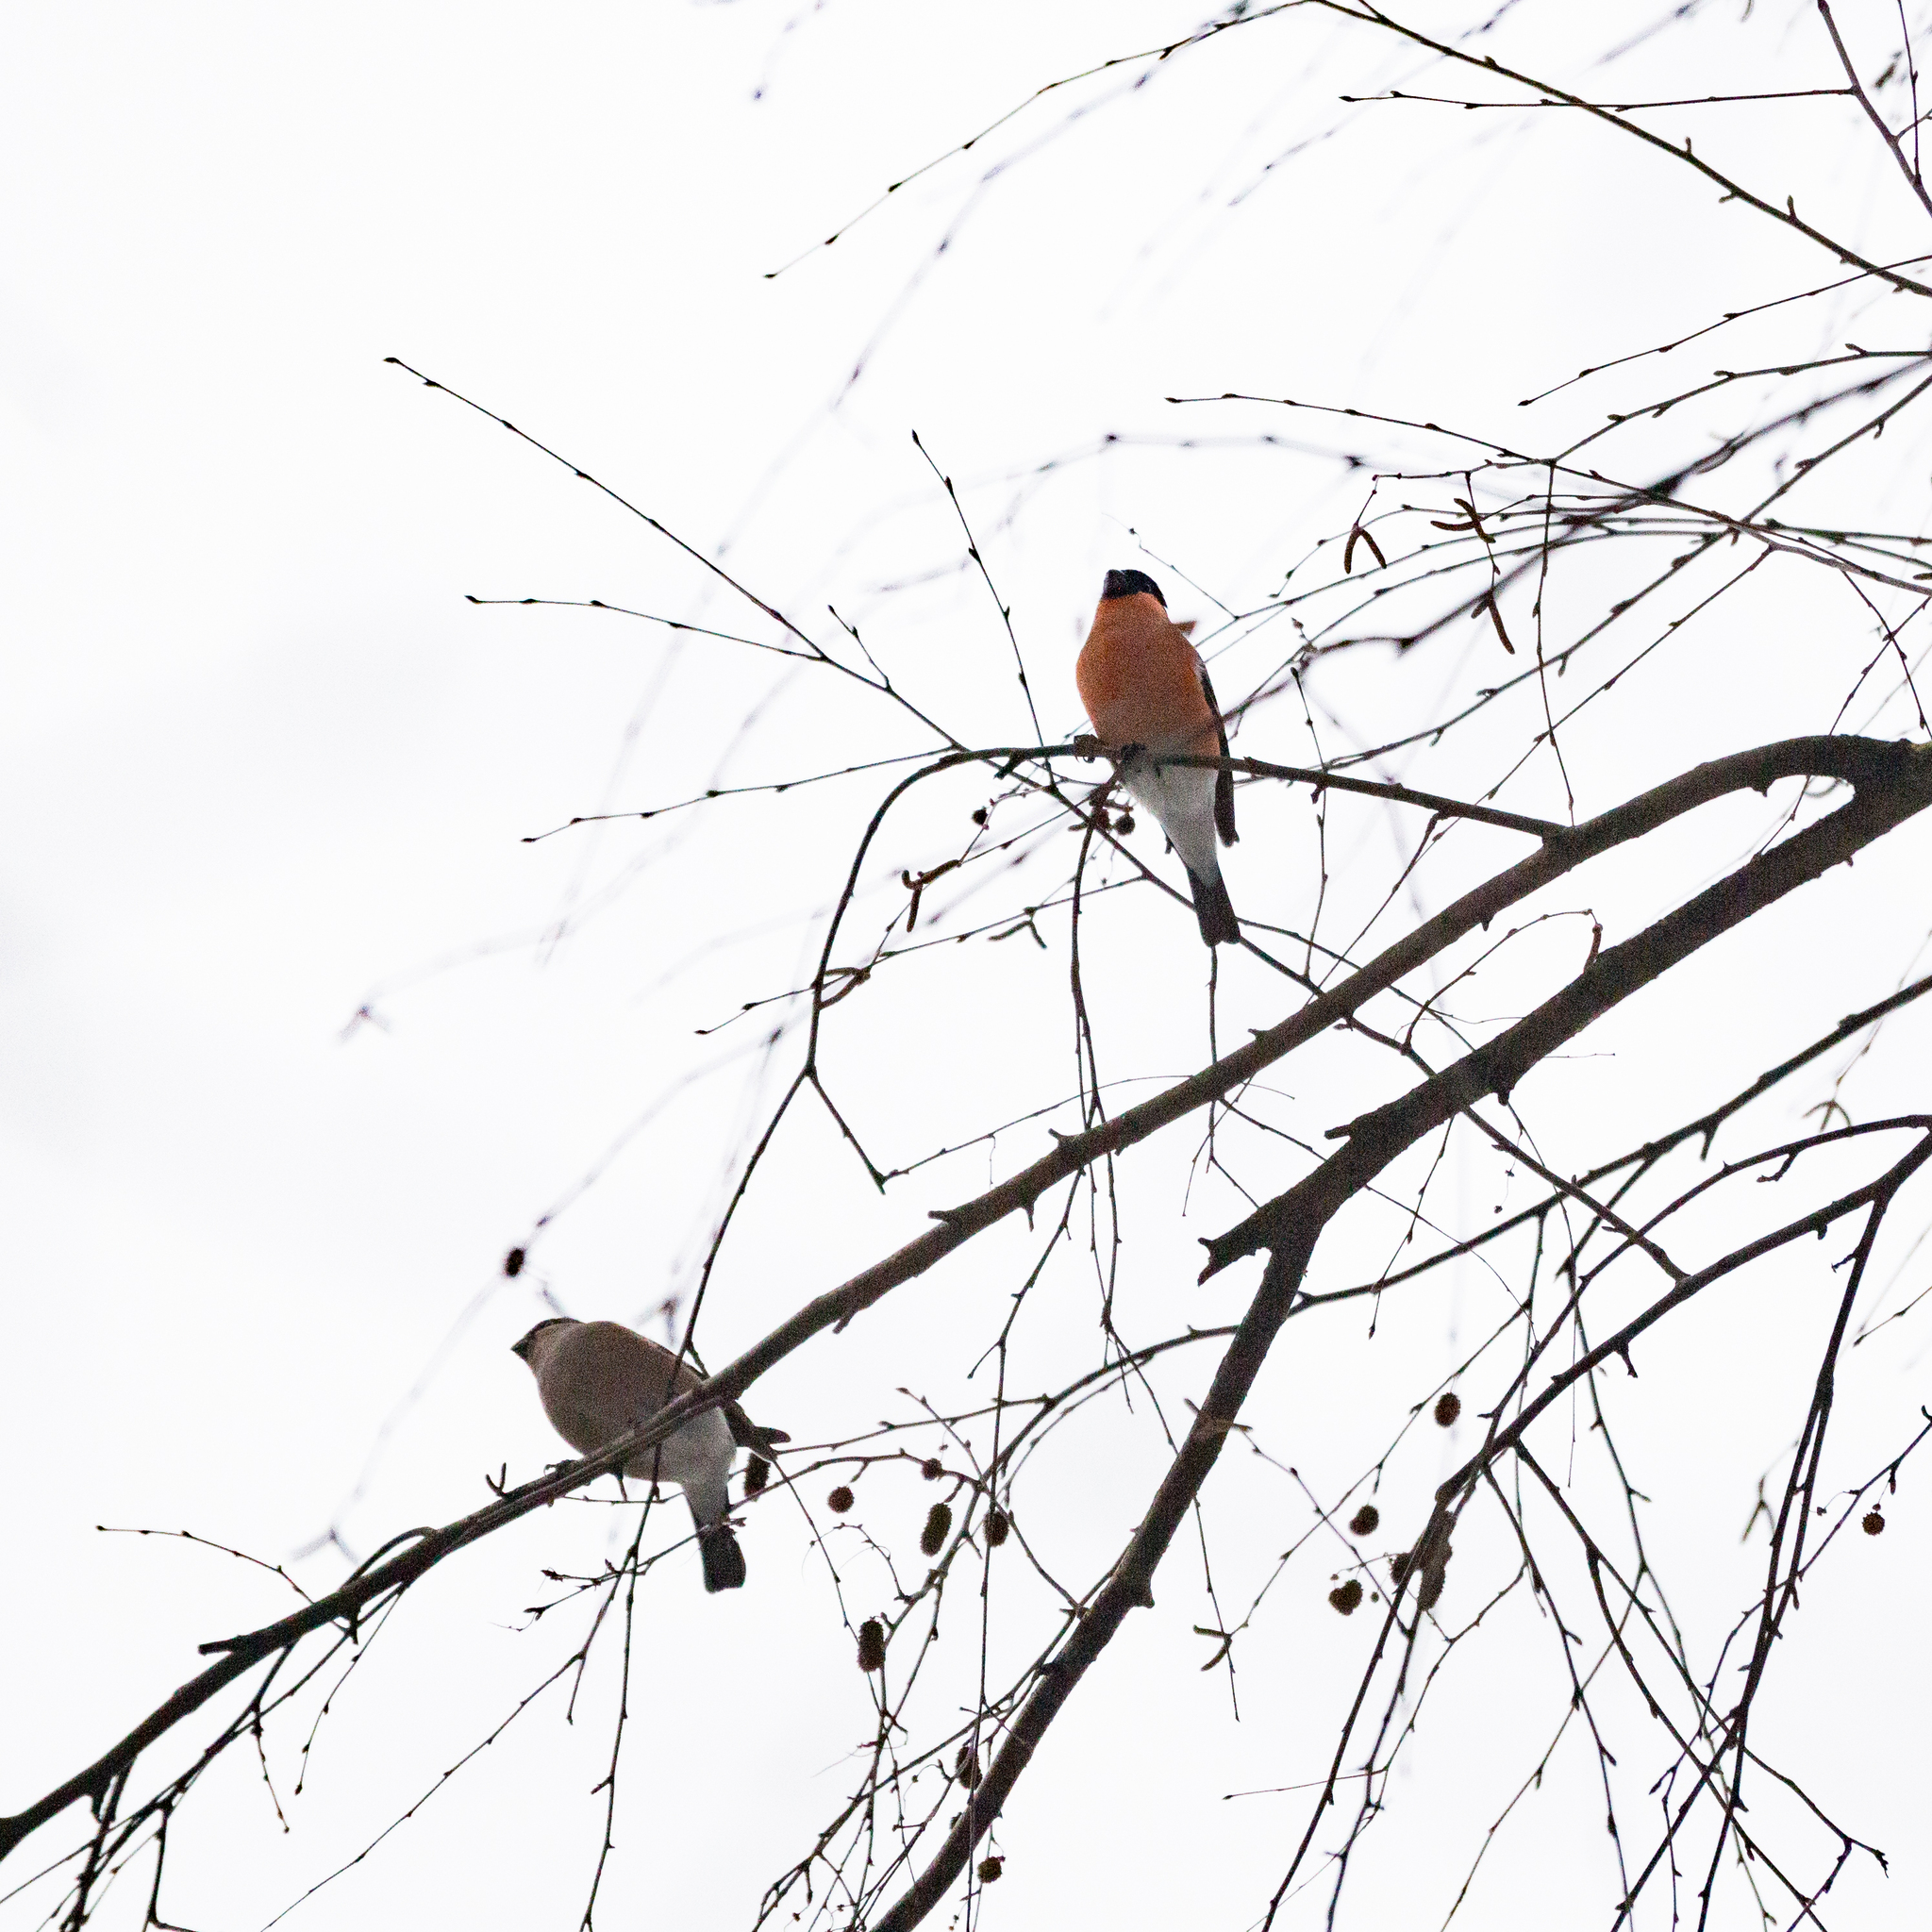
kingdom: Animalia
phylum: Chordata
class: Aves
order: Passeriformes
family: Fringillidae
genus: Pyrrhula
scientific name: Pyrrhula pyrrhula
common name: Eurasian bullfinch
